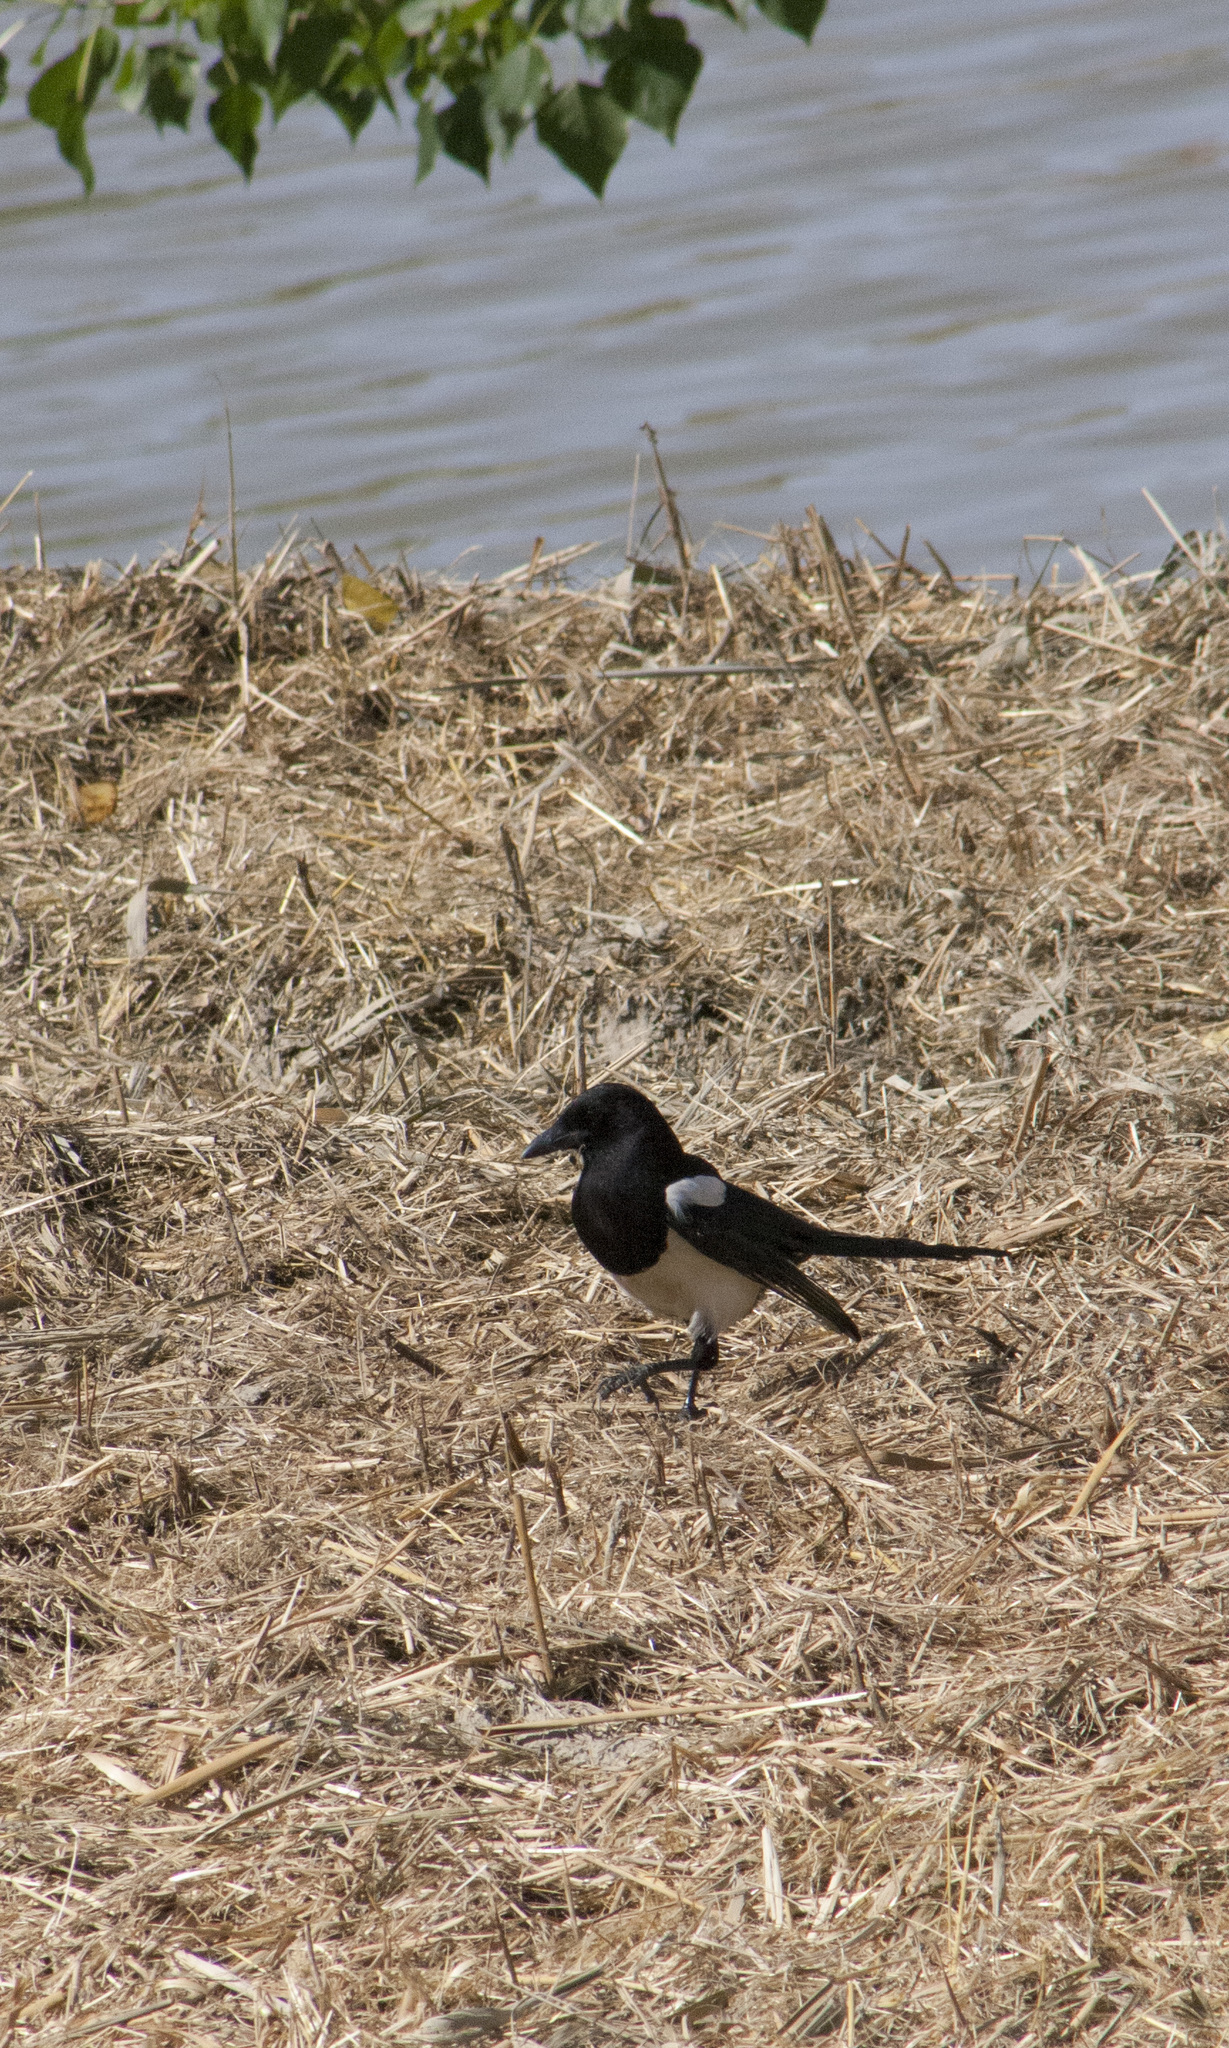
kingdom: Animalia
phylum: Chordata
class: Aves
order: Passeriformes
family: Corvidae
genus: Pica
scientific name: Pica pica
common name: Eurasian magpie
